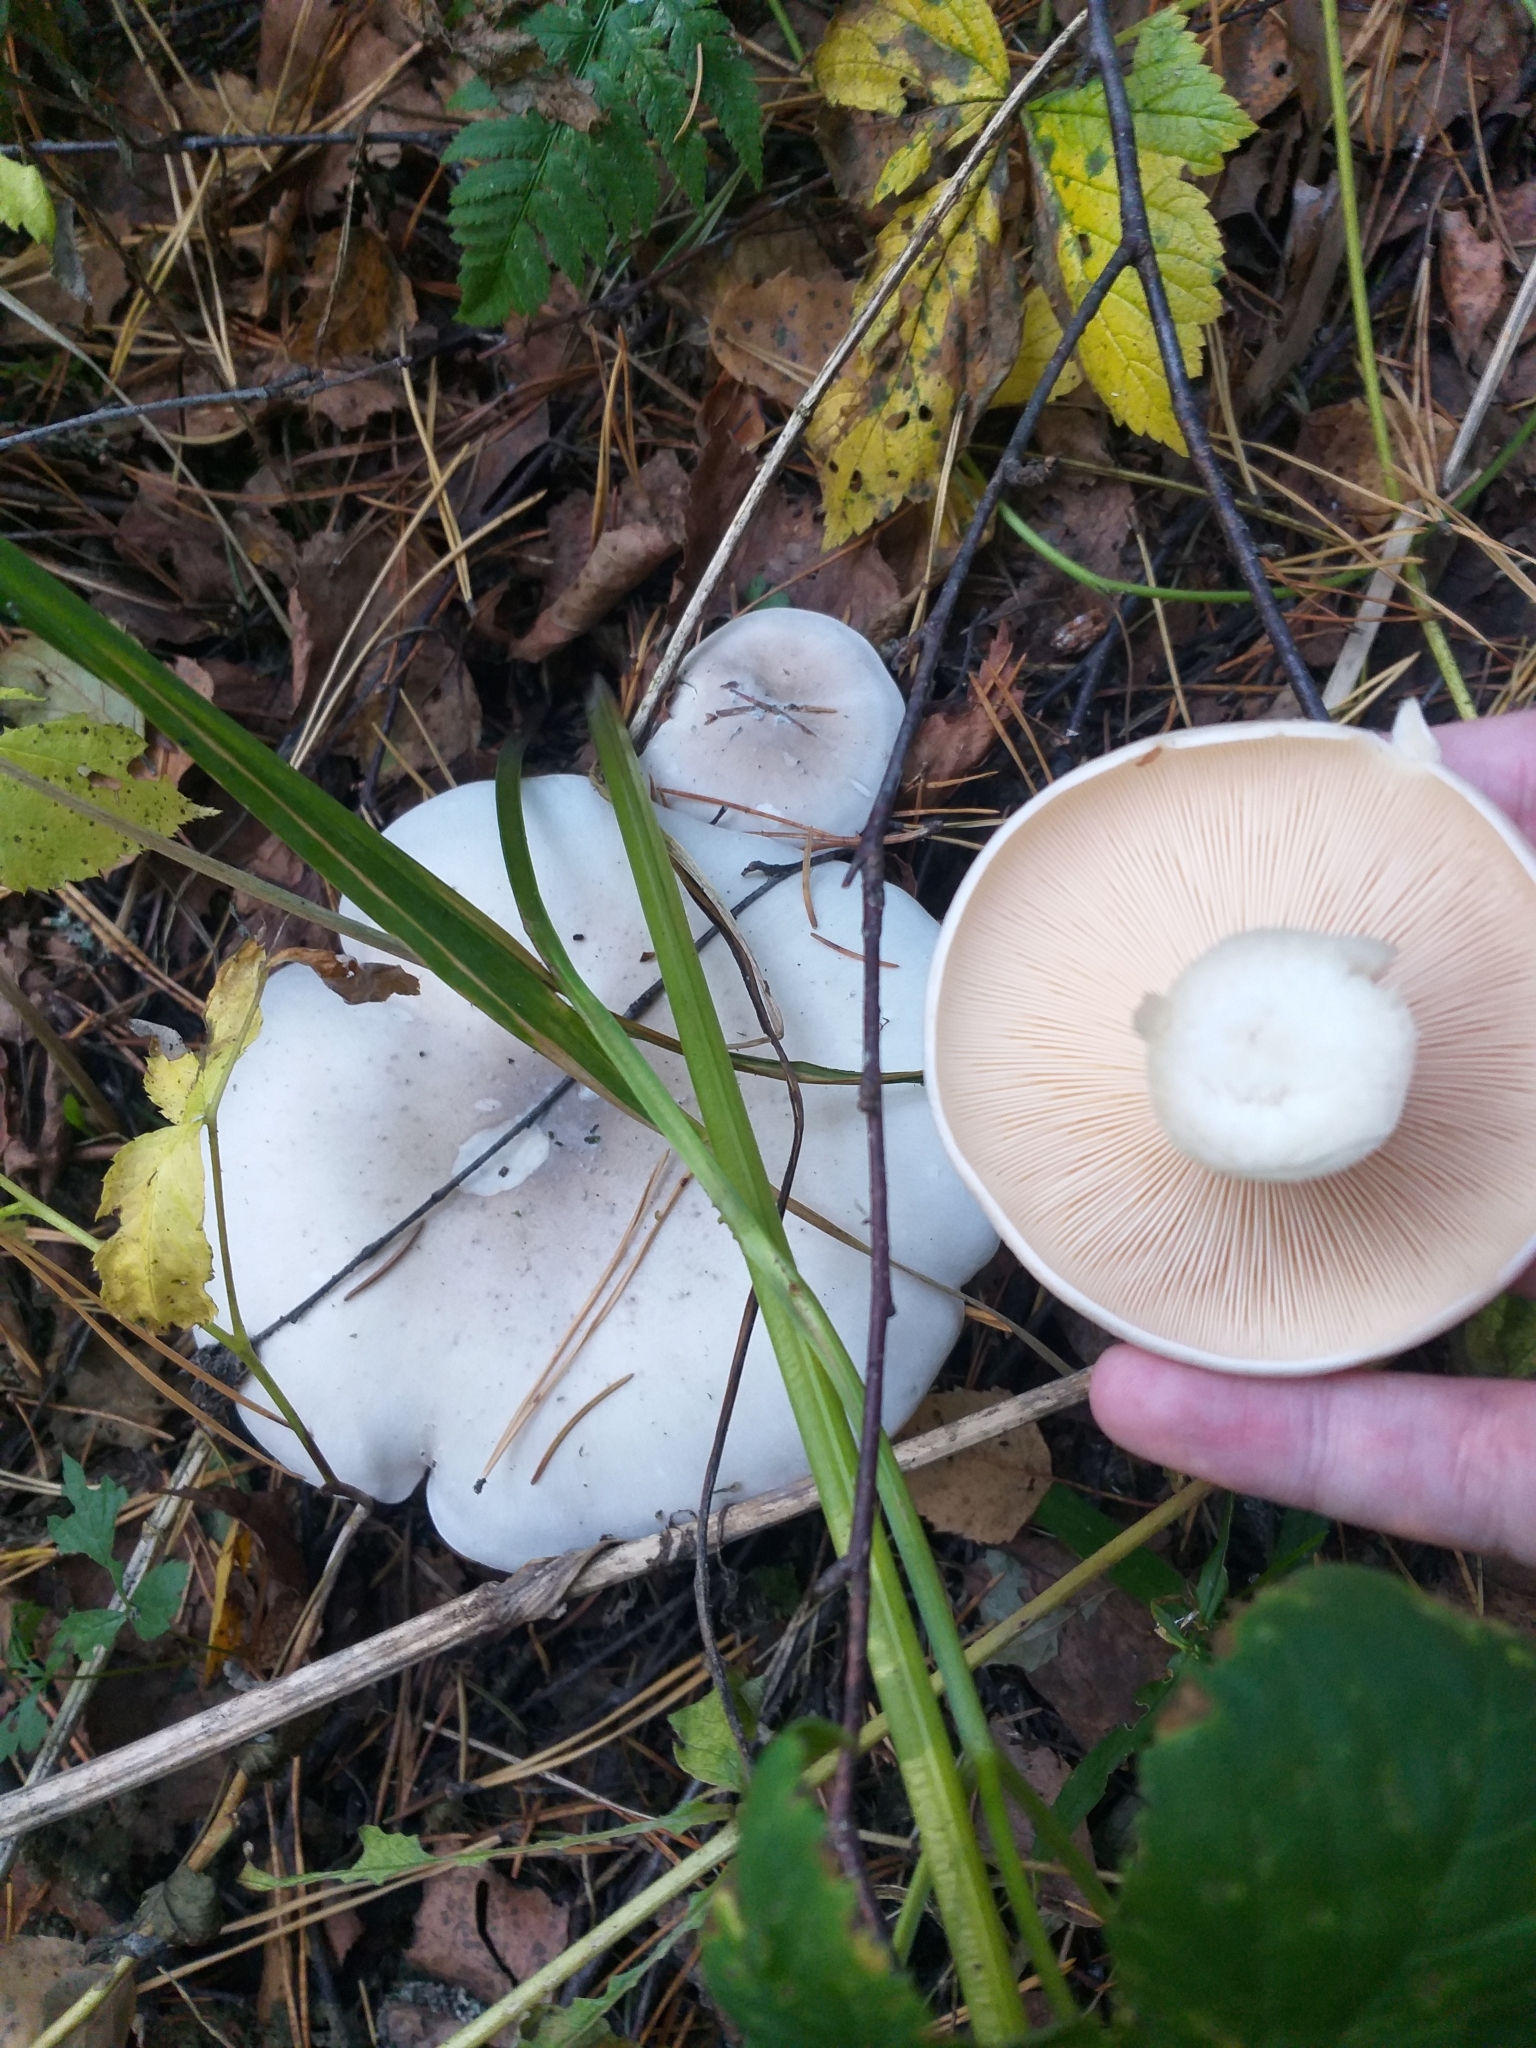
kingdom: Fungi
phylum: Basidiomycota
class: Agaricomycetes
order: Agaricales
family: Tricholomataceae
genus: Clitocybe
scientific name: Clitocybe nebularis
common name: Clouded agaric
